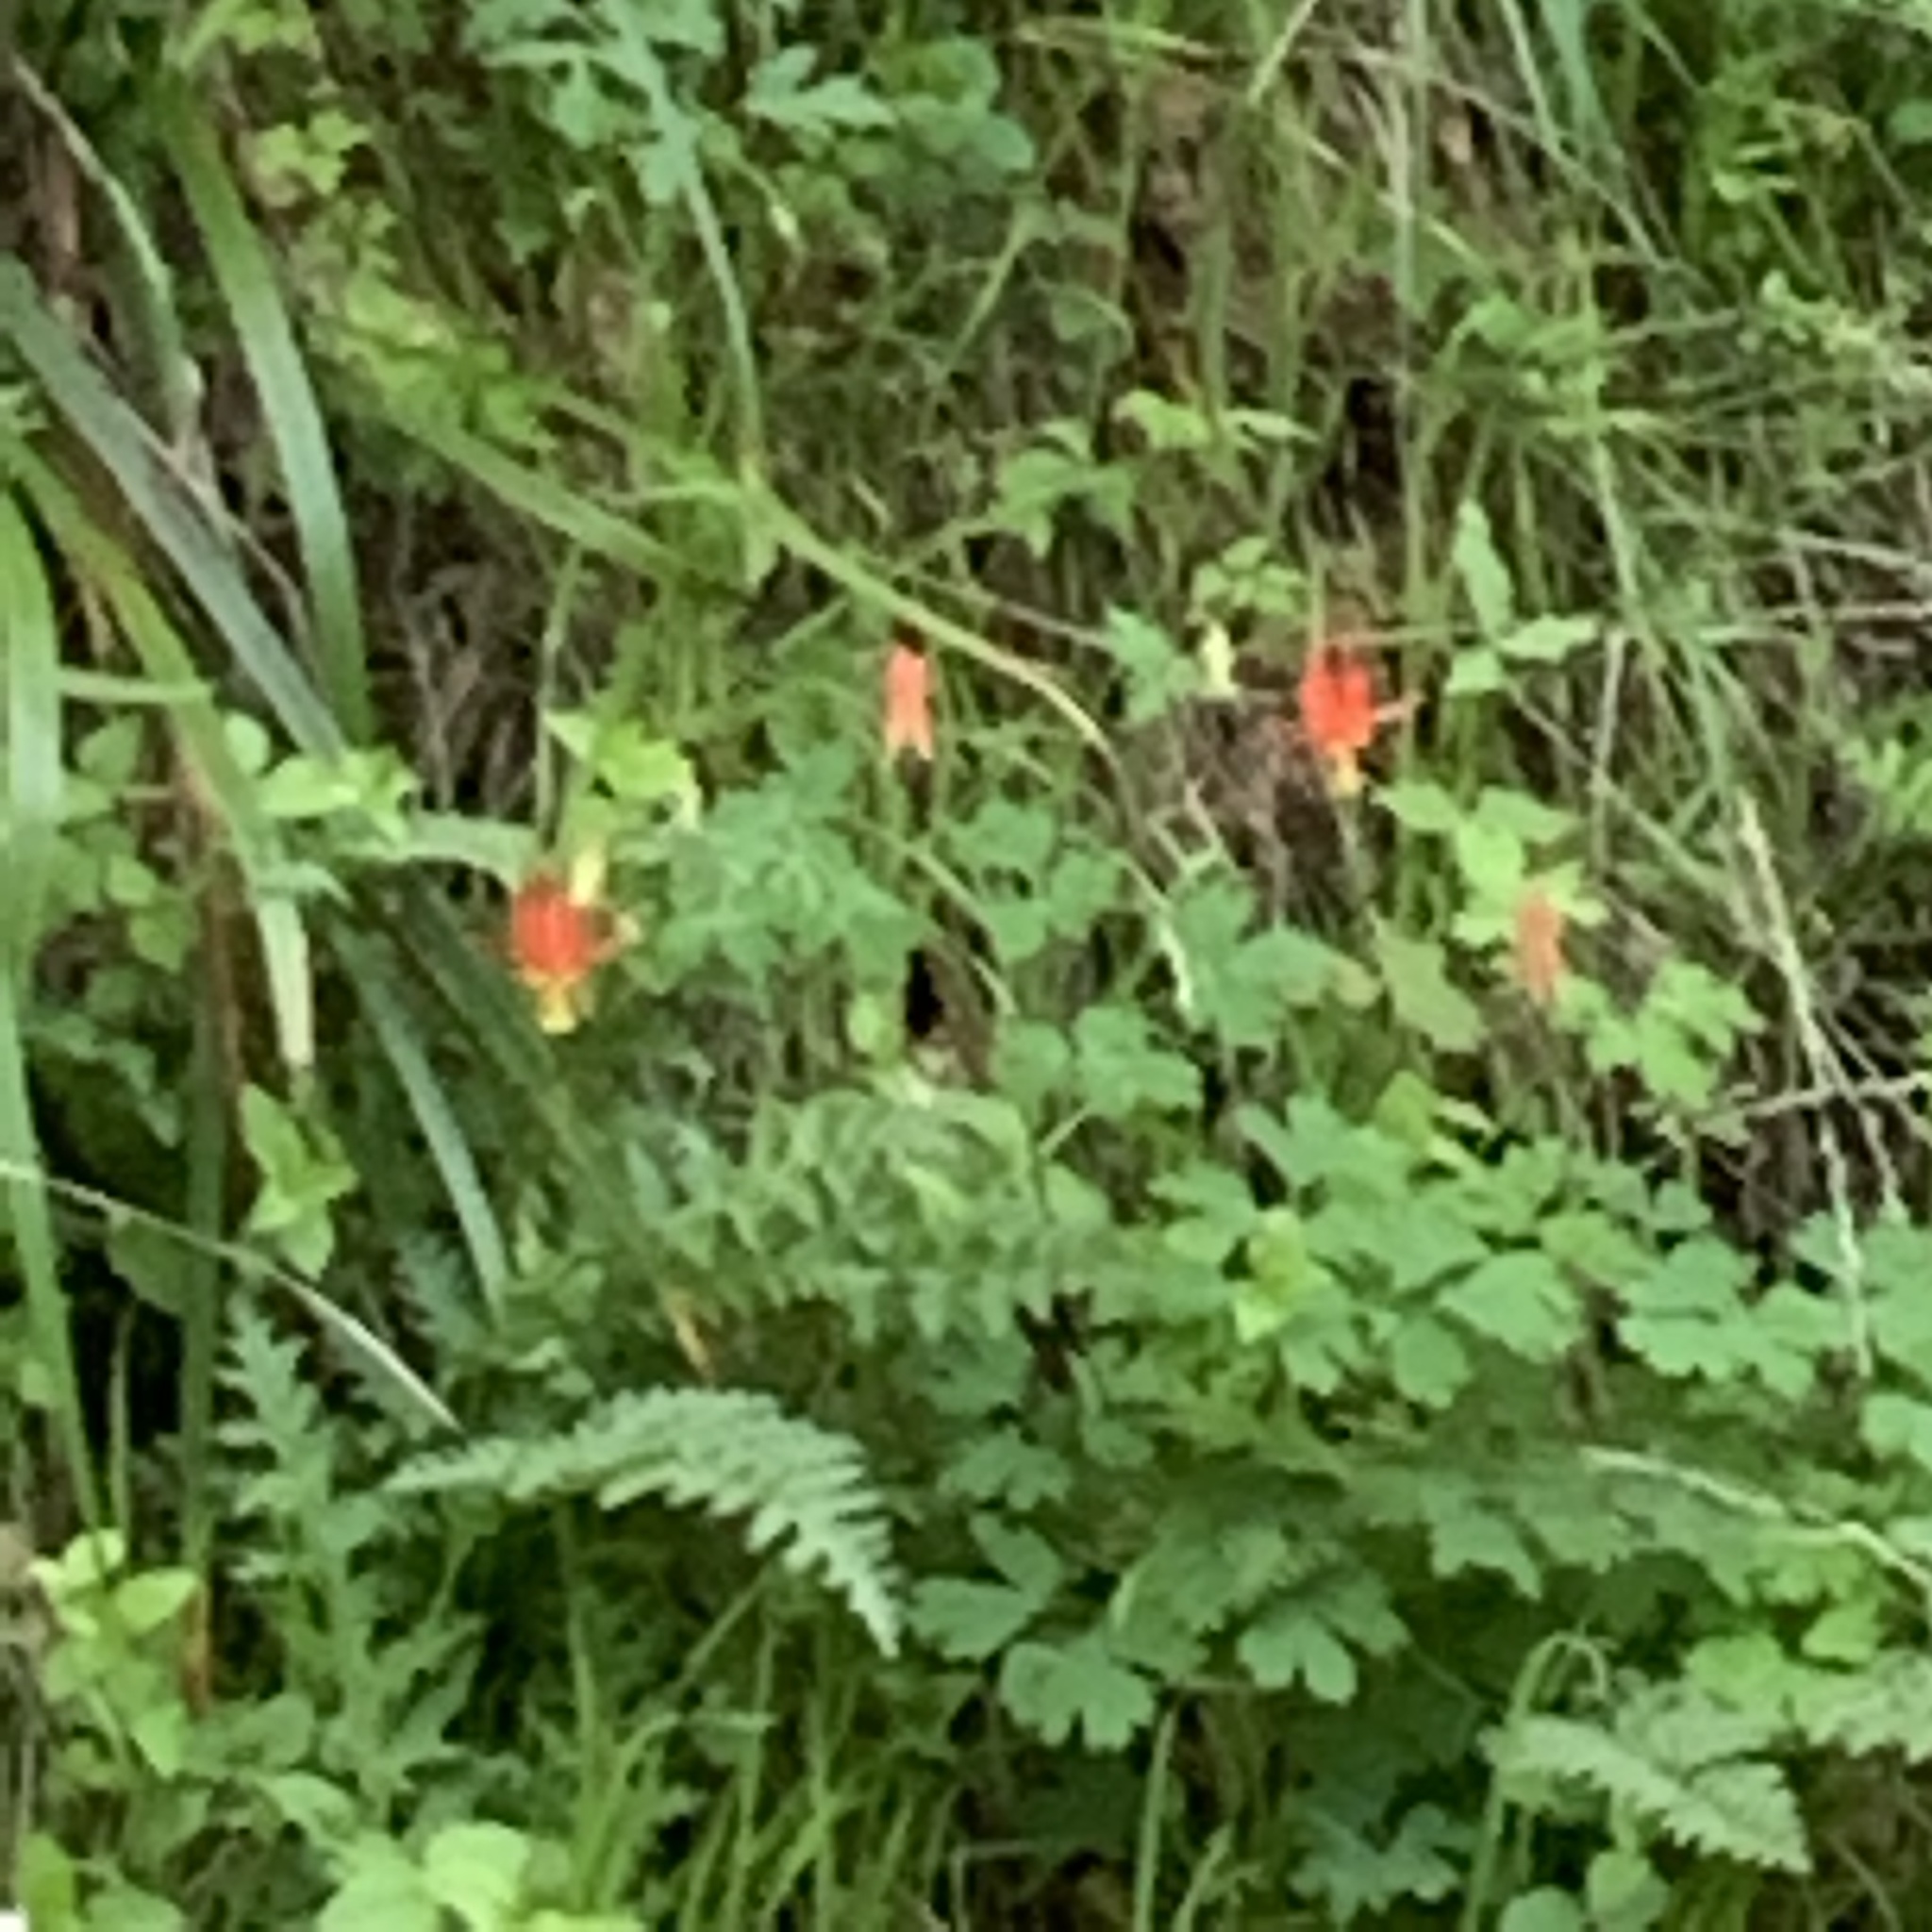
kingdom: Plantae
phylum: Tracheophyta
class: Magnoliopsida
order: Ranunculales
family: Ranunculaceae
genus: Aquilegia
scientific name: Aquilegia formosa
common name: Sitka columbine
